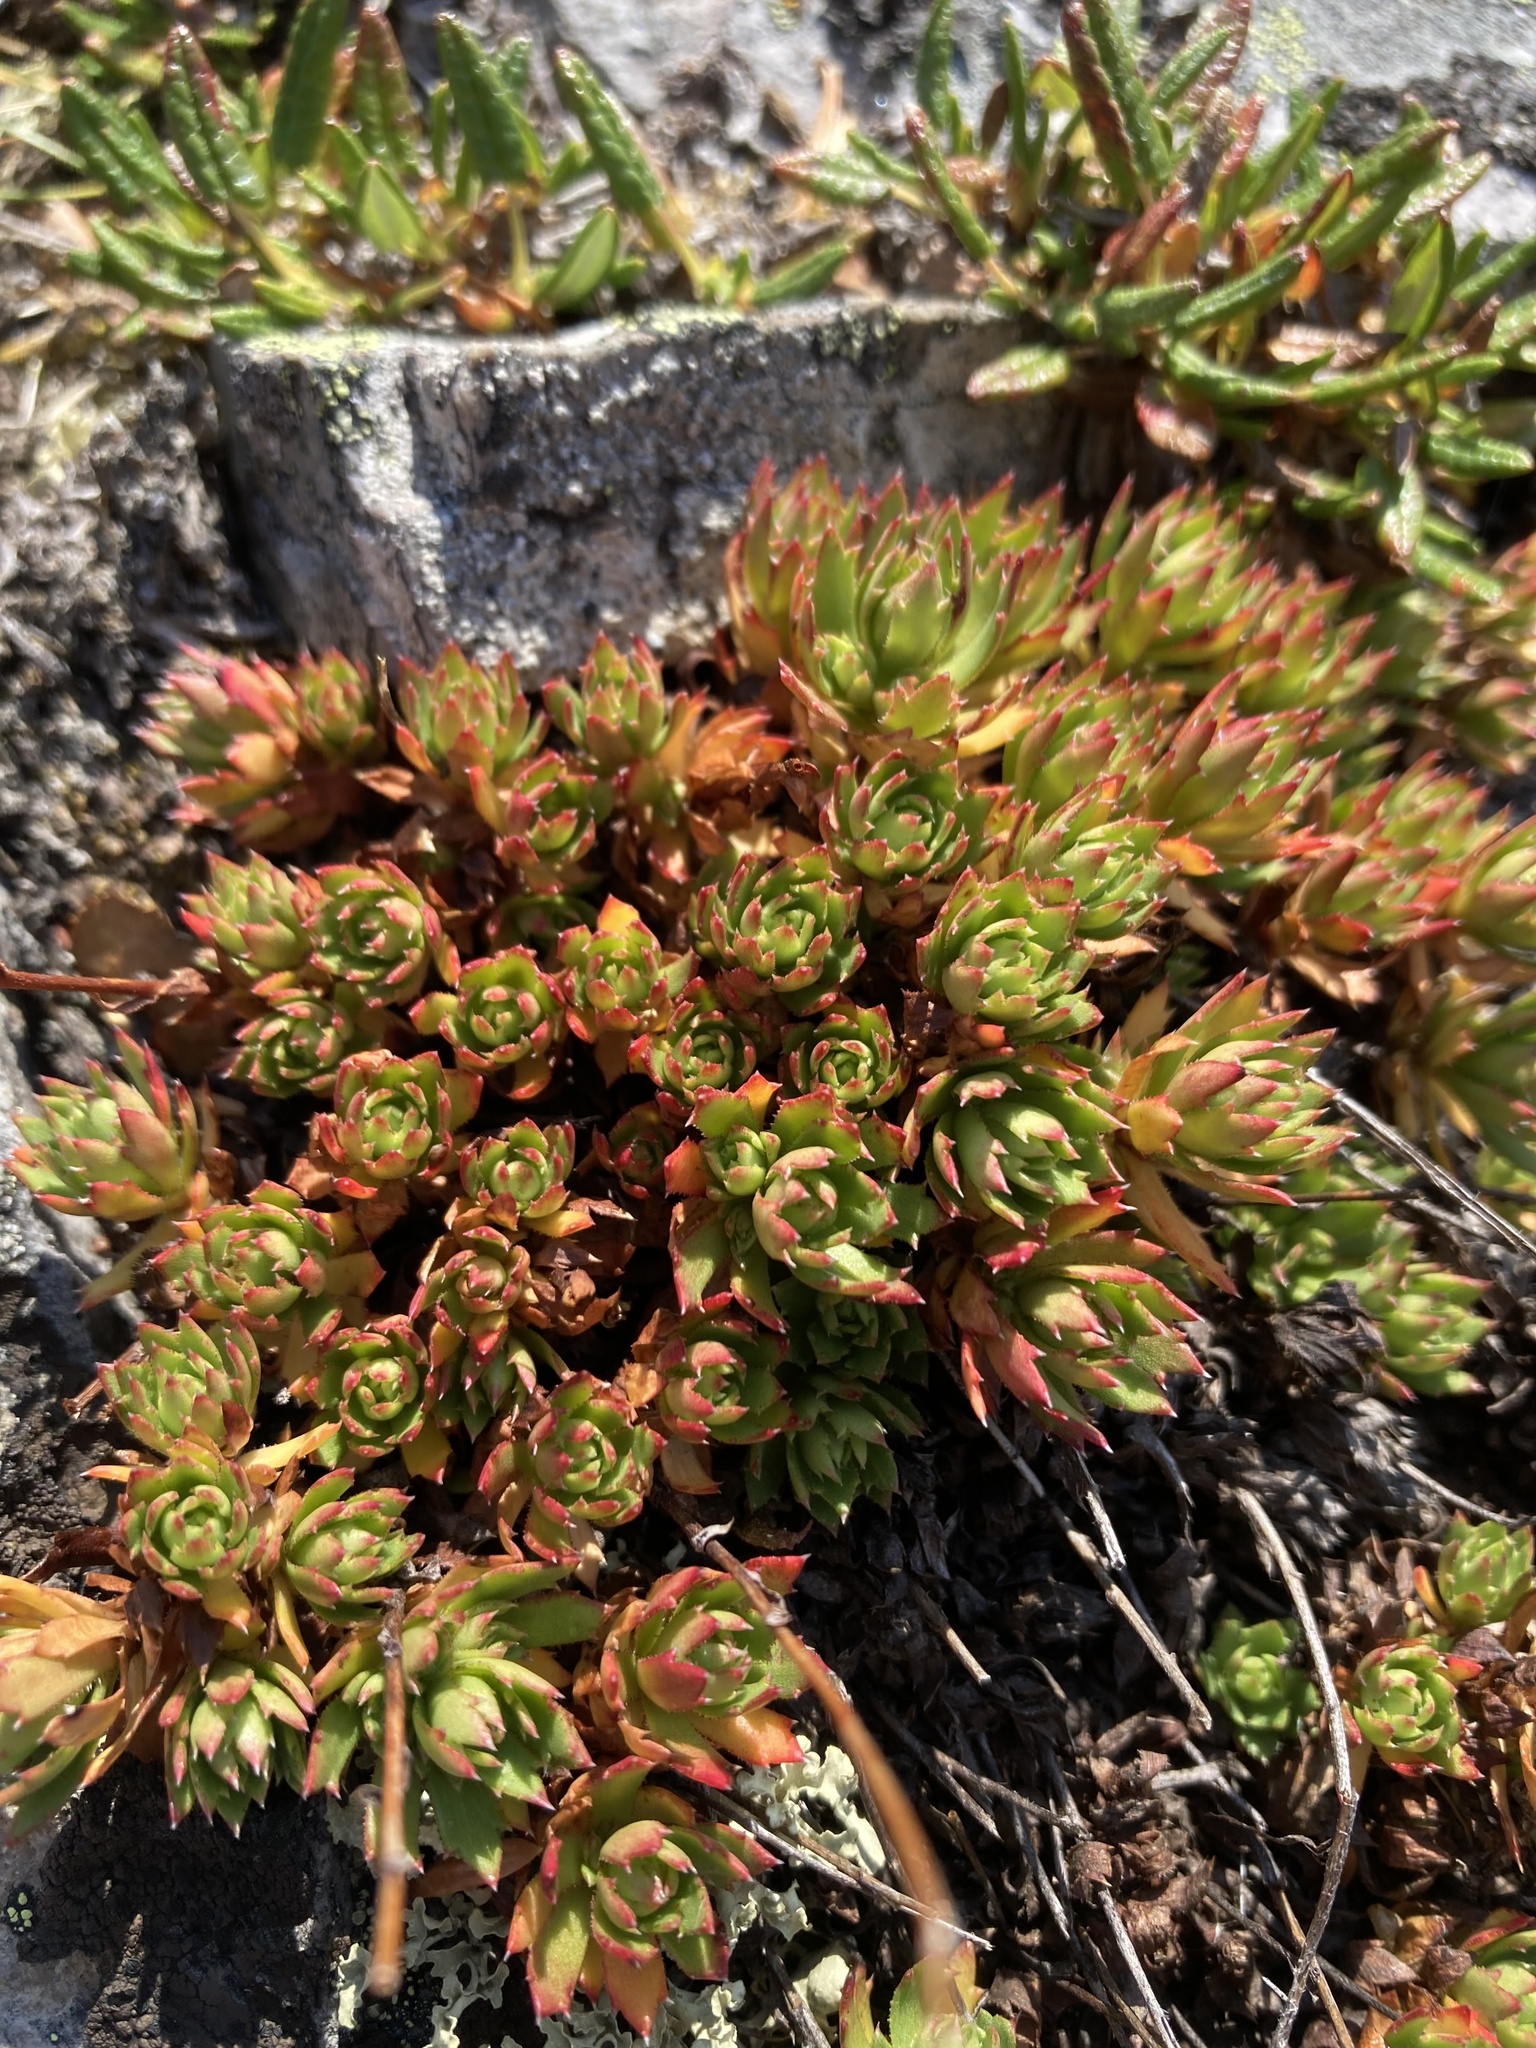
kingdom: Plantae
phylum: Tracheophyta
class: Magnoliopsida
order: Saxifragales
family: Saxifragaceae
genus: Saxifraga
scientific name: Saxifraga tricuspidata
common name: Prickly saxifrage
